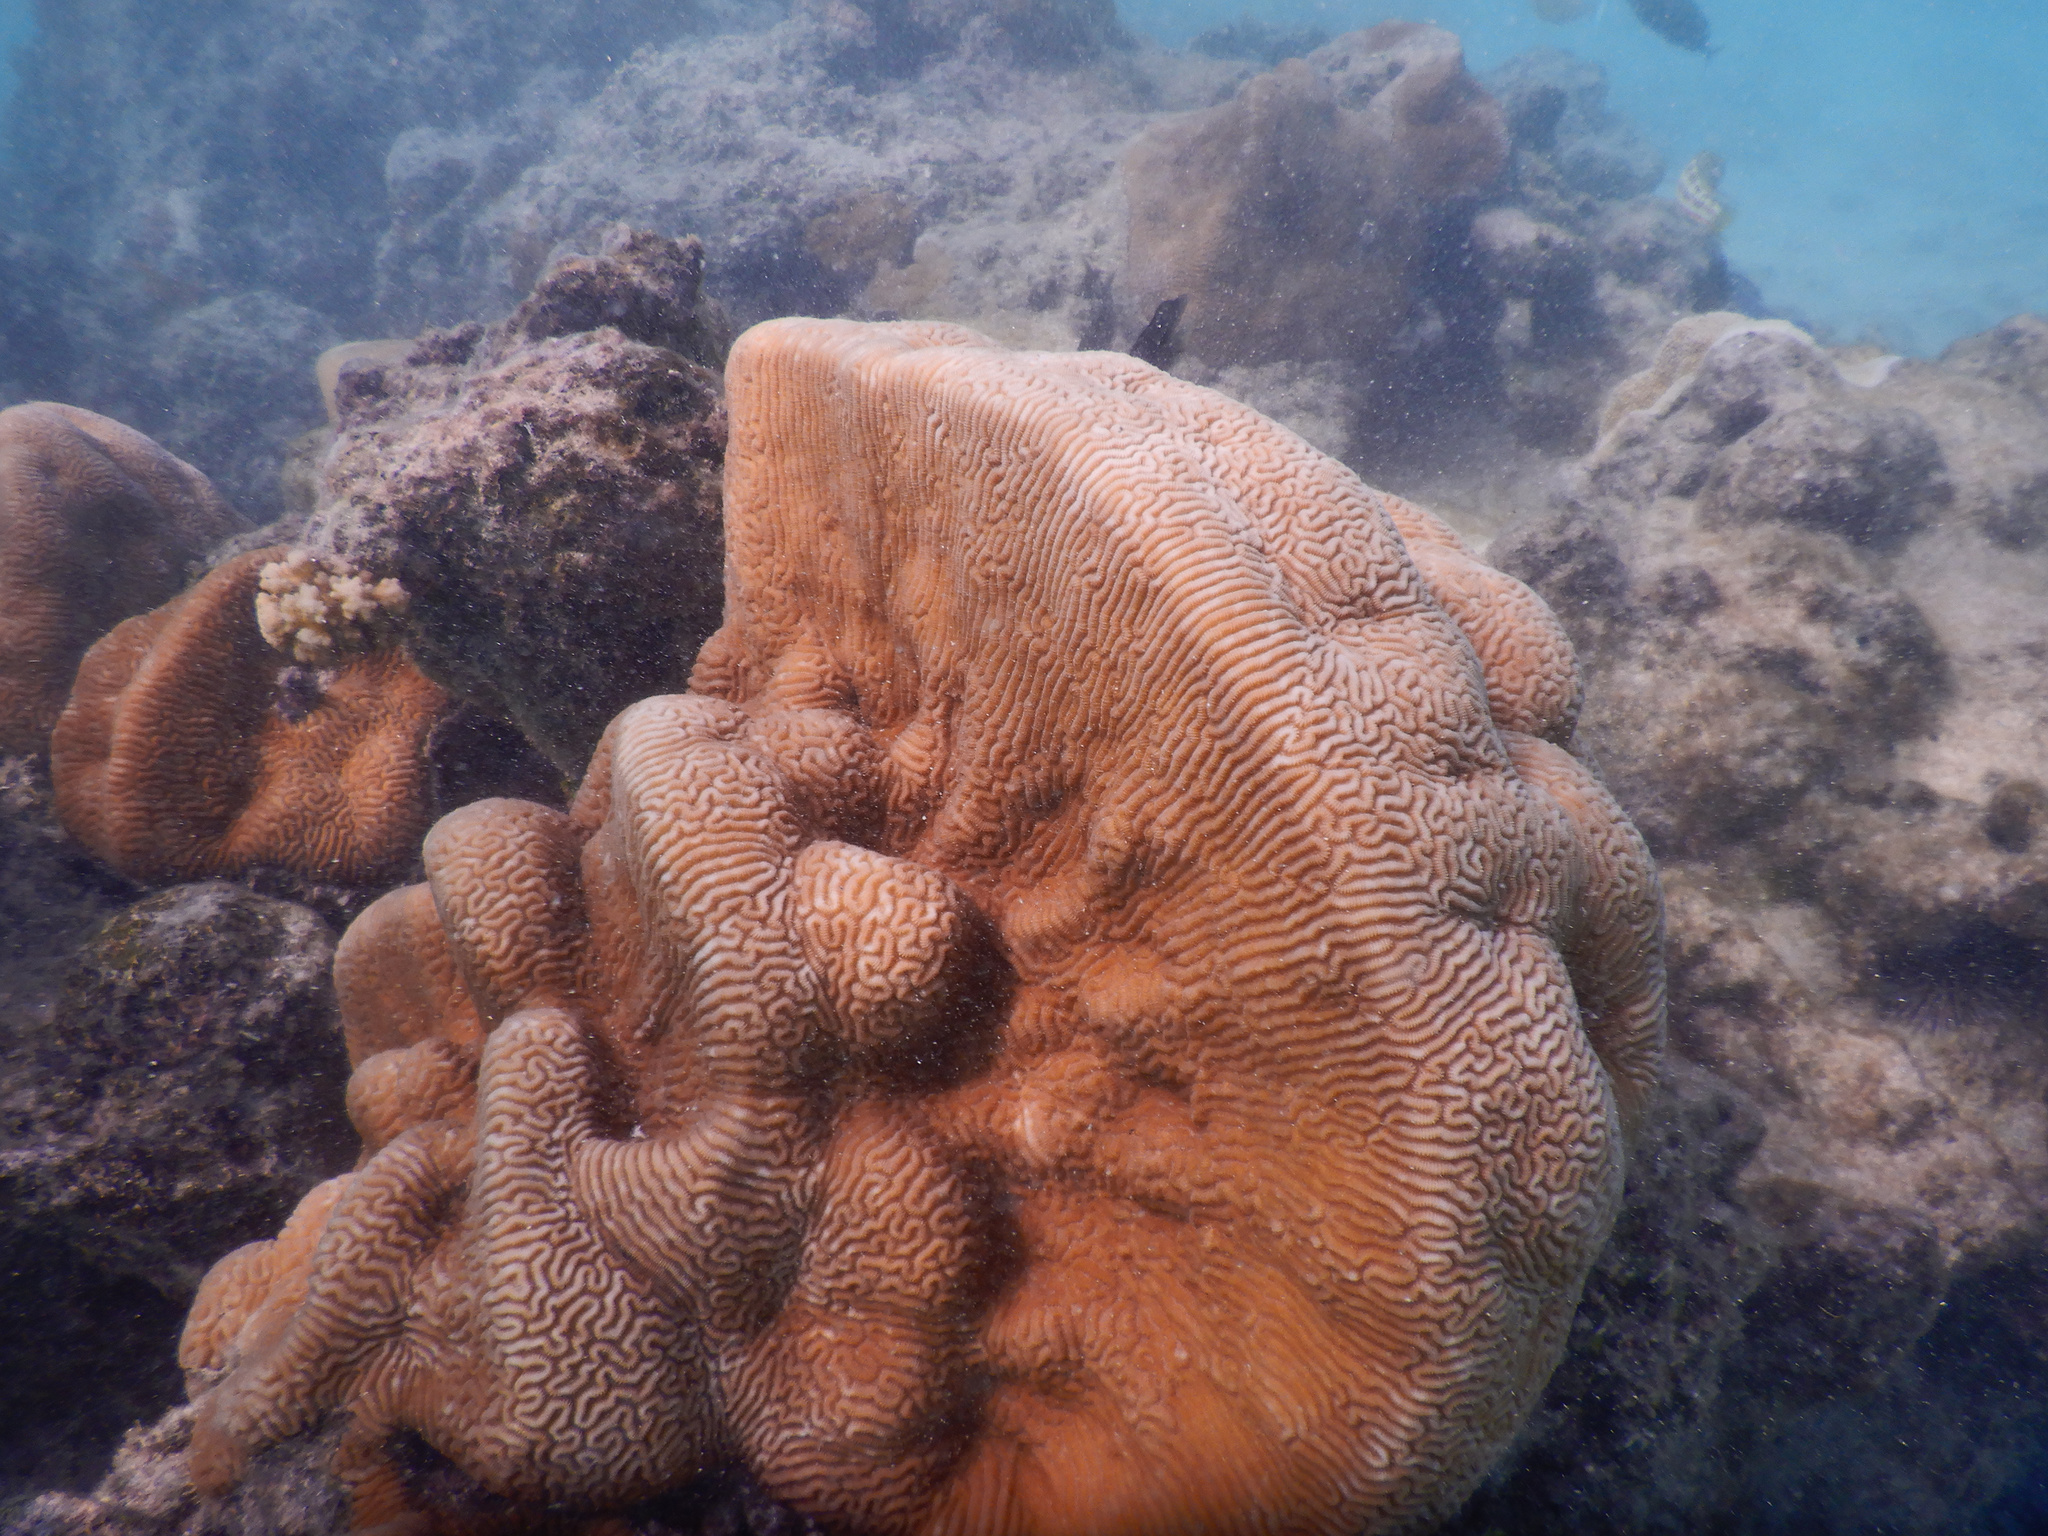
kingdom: Animalia
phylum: Cnidaria
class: Anthozoa
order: Scleractinia
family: Merulinidae
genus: Leptoria
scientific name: Leptoria phrygia
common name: Least valley coral
